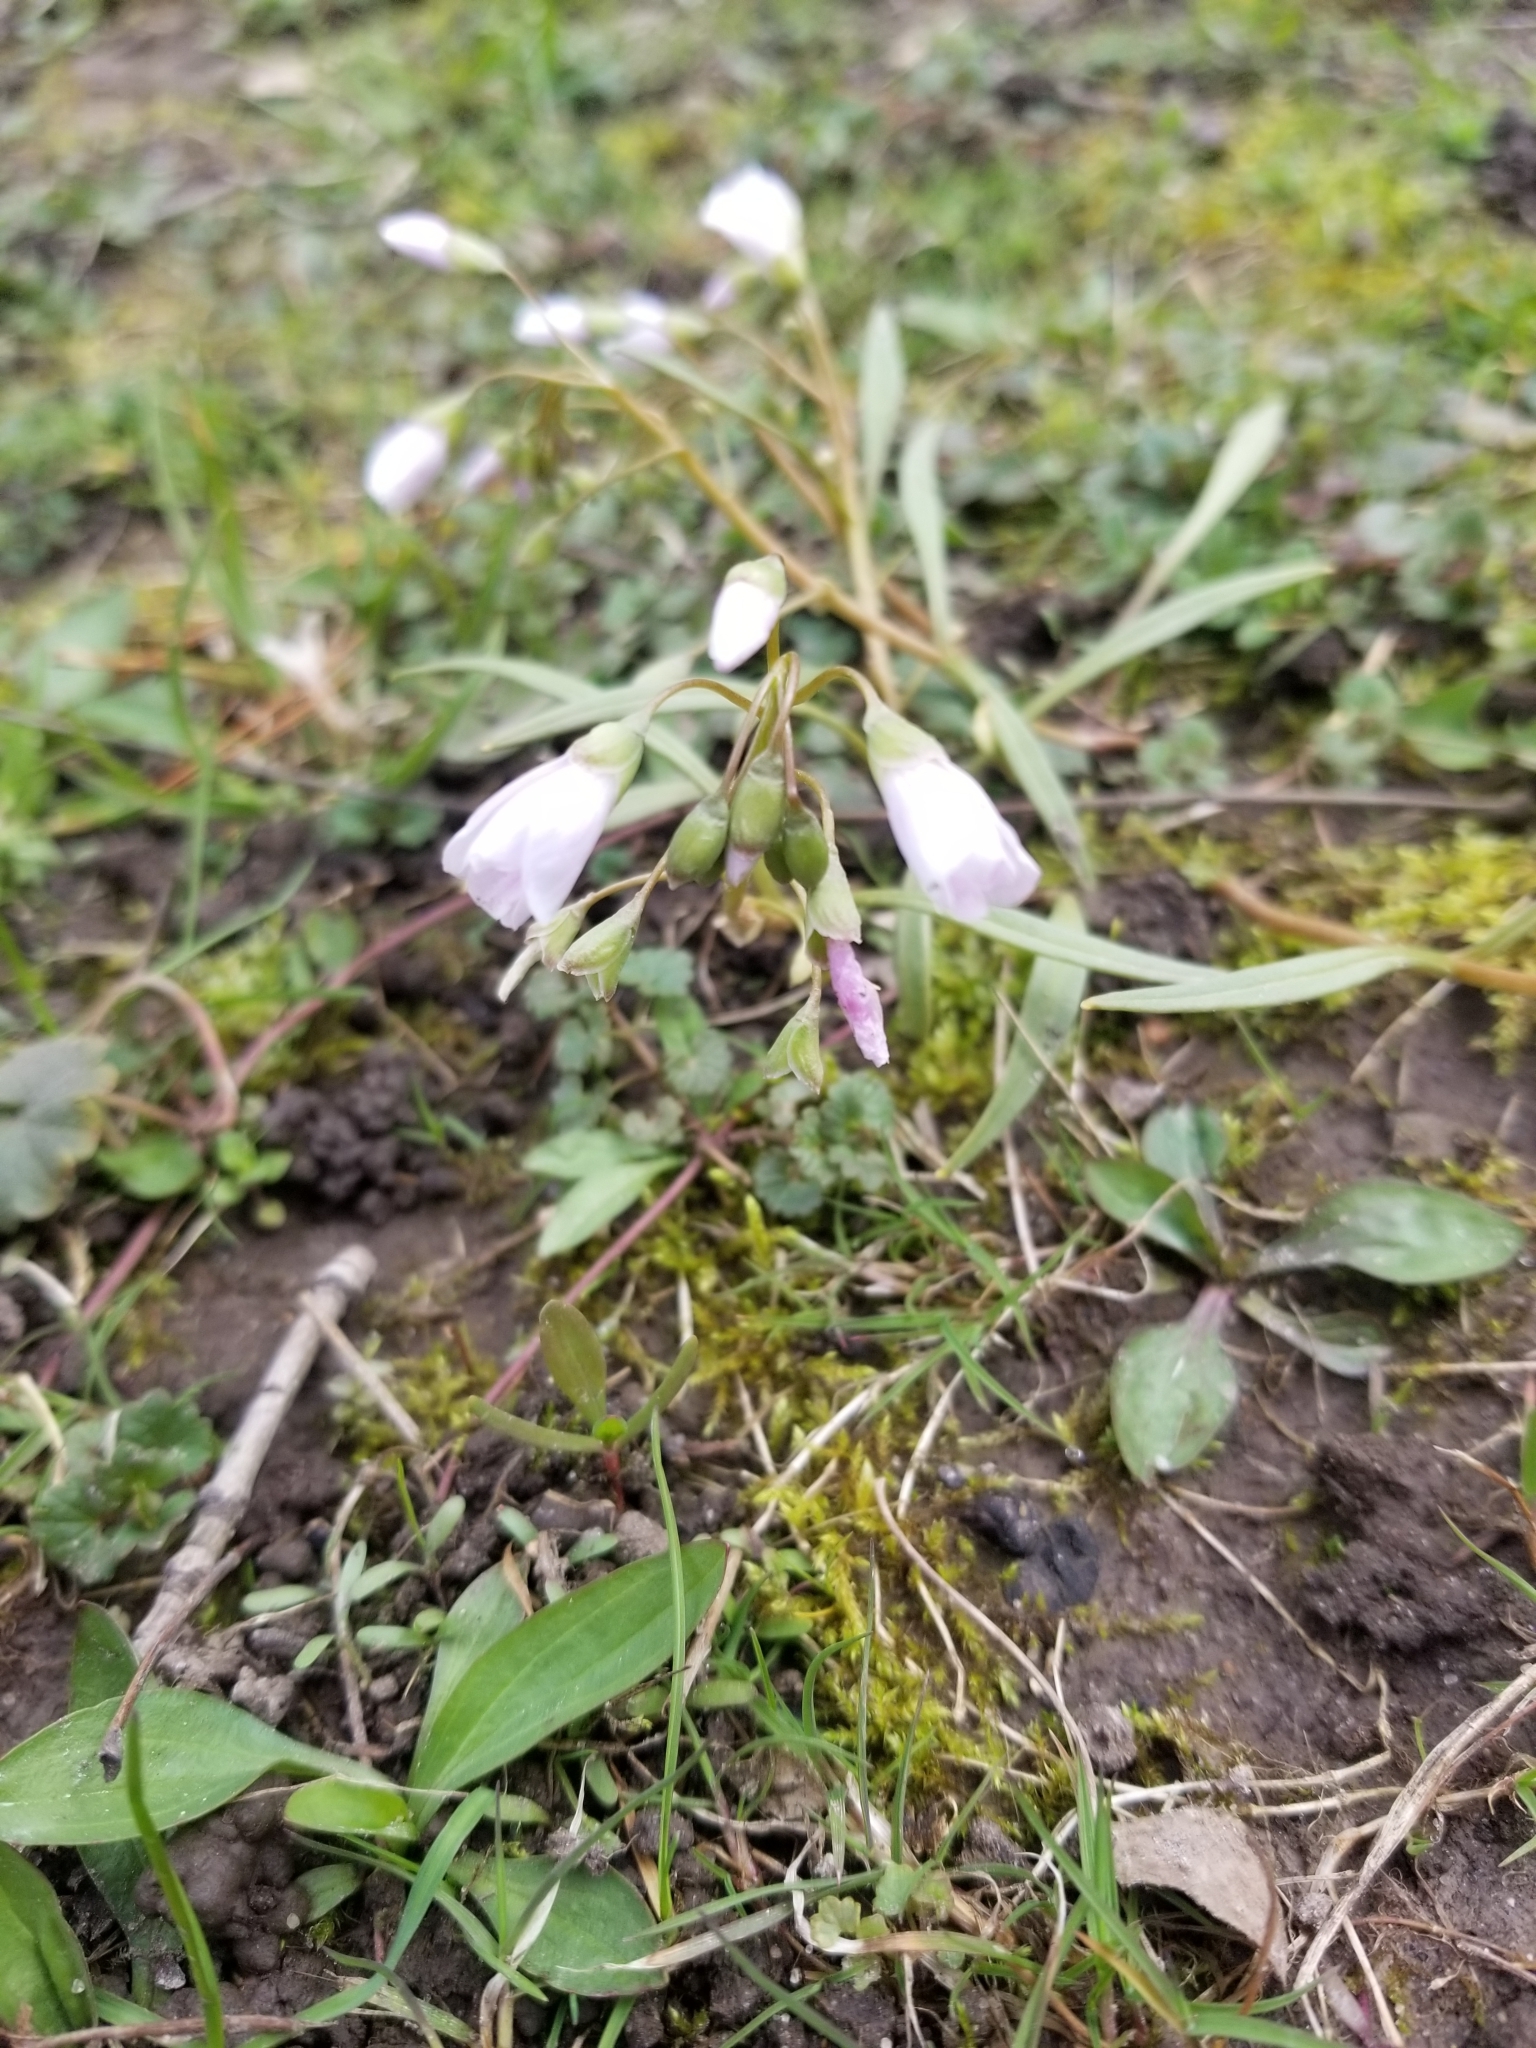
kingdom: Plantae
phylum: Tracheophyta
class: Magnoliopsida
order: Caryophyllales
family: Montiaceae
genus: Claytonia
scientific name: Claytonia virginica
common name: Virginia springbeauty
